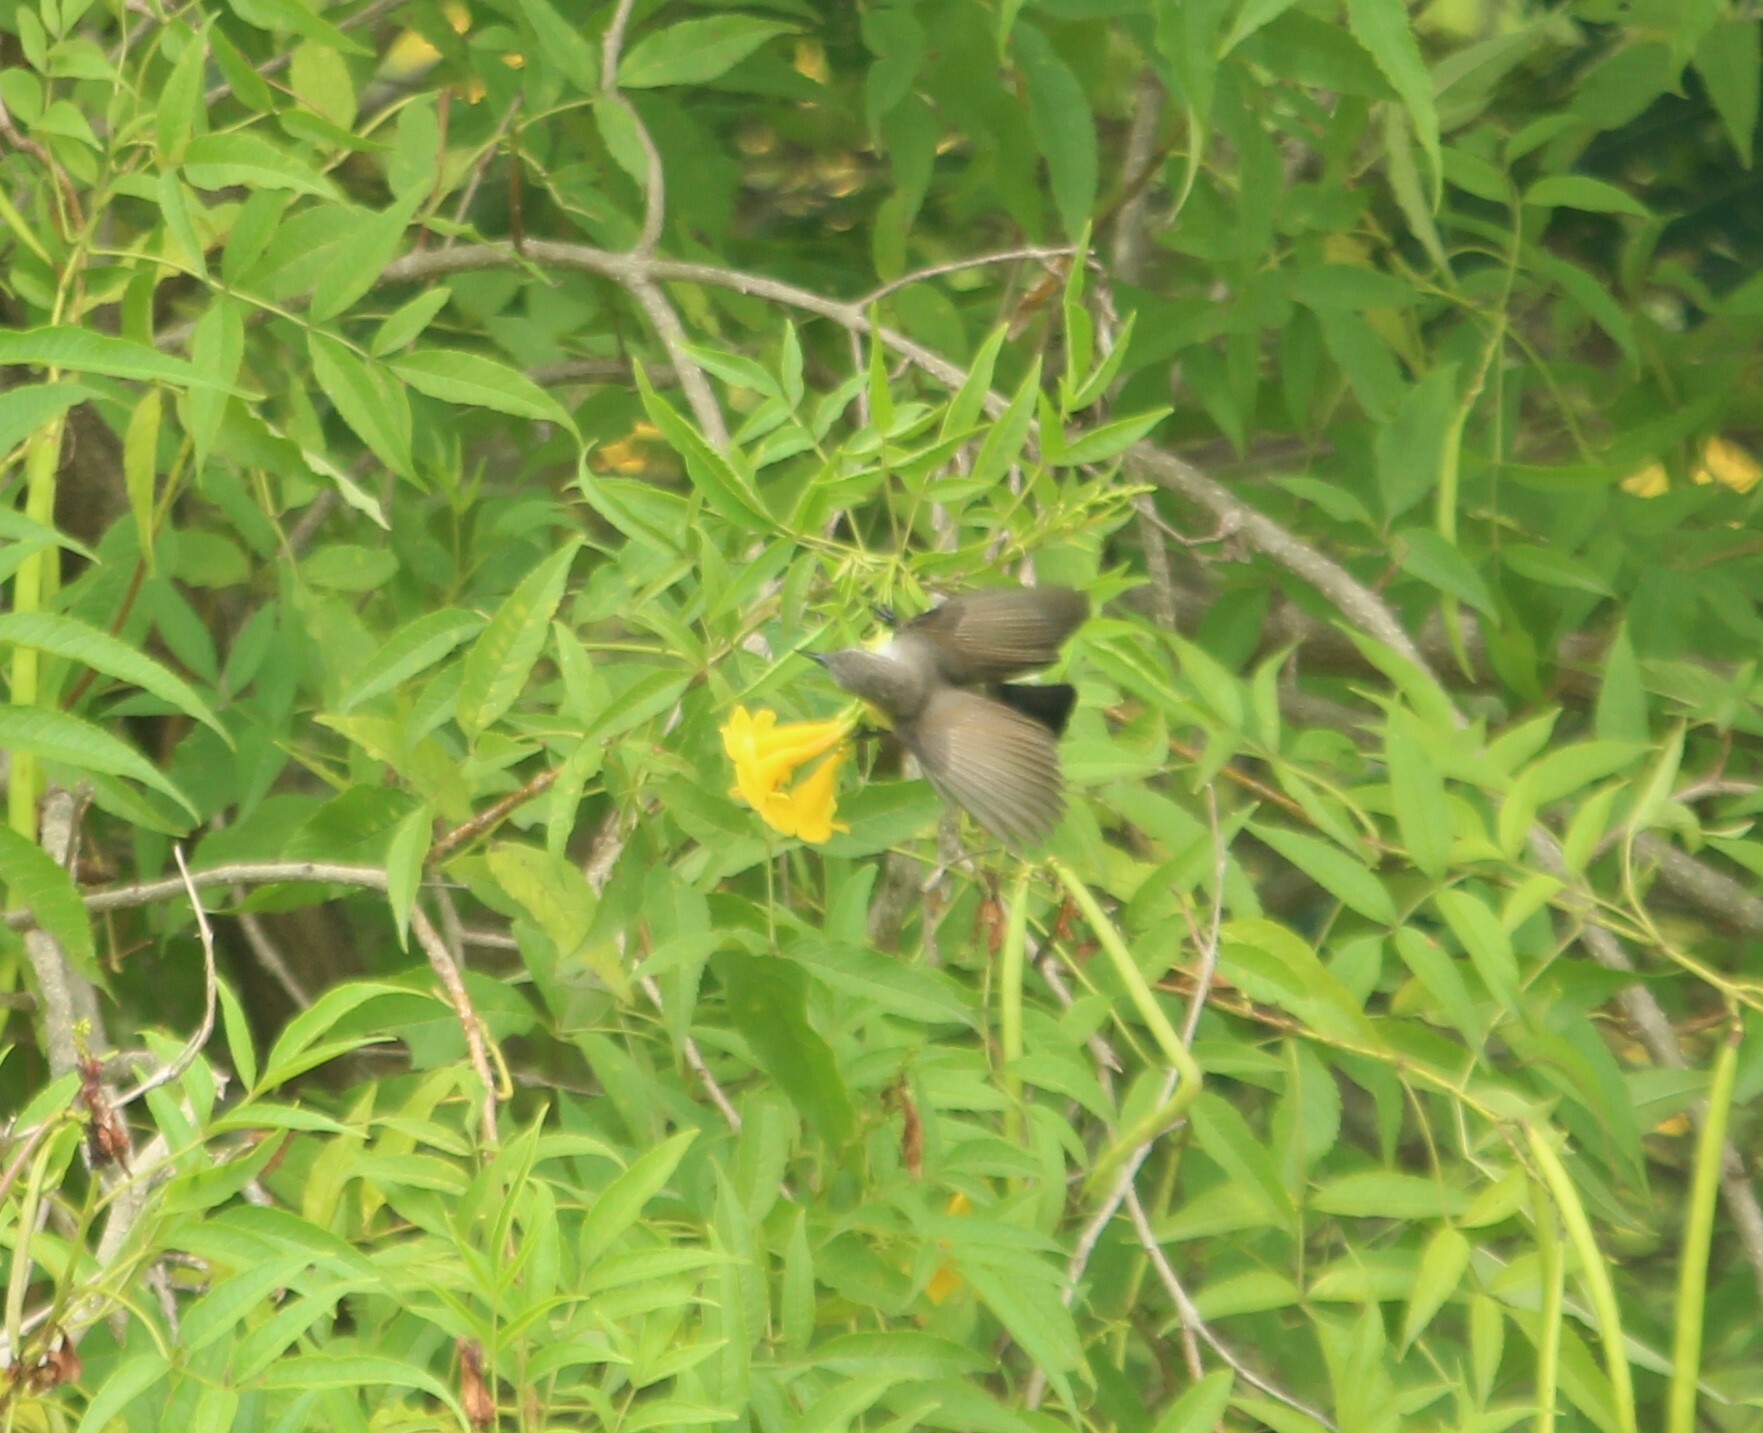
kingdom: Animalia
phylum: Chordata
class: Aves
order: Passeriformes
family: Nectariniidae
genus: Cinnyris
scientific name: Cinnyris asiaticus
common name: Purple sunbird
